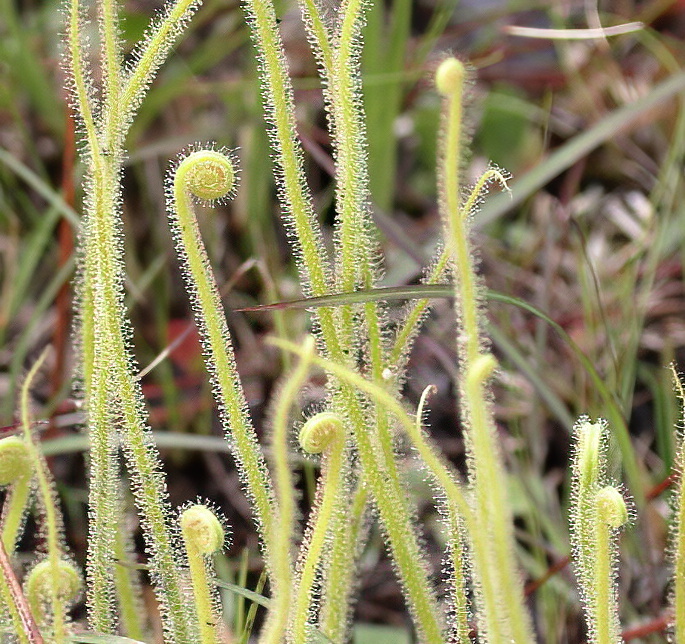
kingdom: Plantae
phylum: Tracheophyta
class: Magnoliopsida
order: Caryophyllales
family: Droseraceae
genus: Drosera
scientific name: Drosera filiformis
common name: Dew-thread
